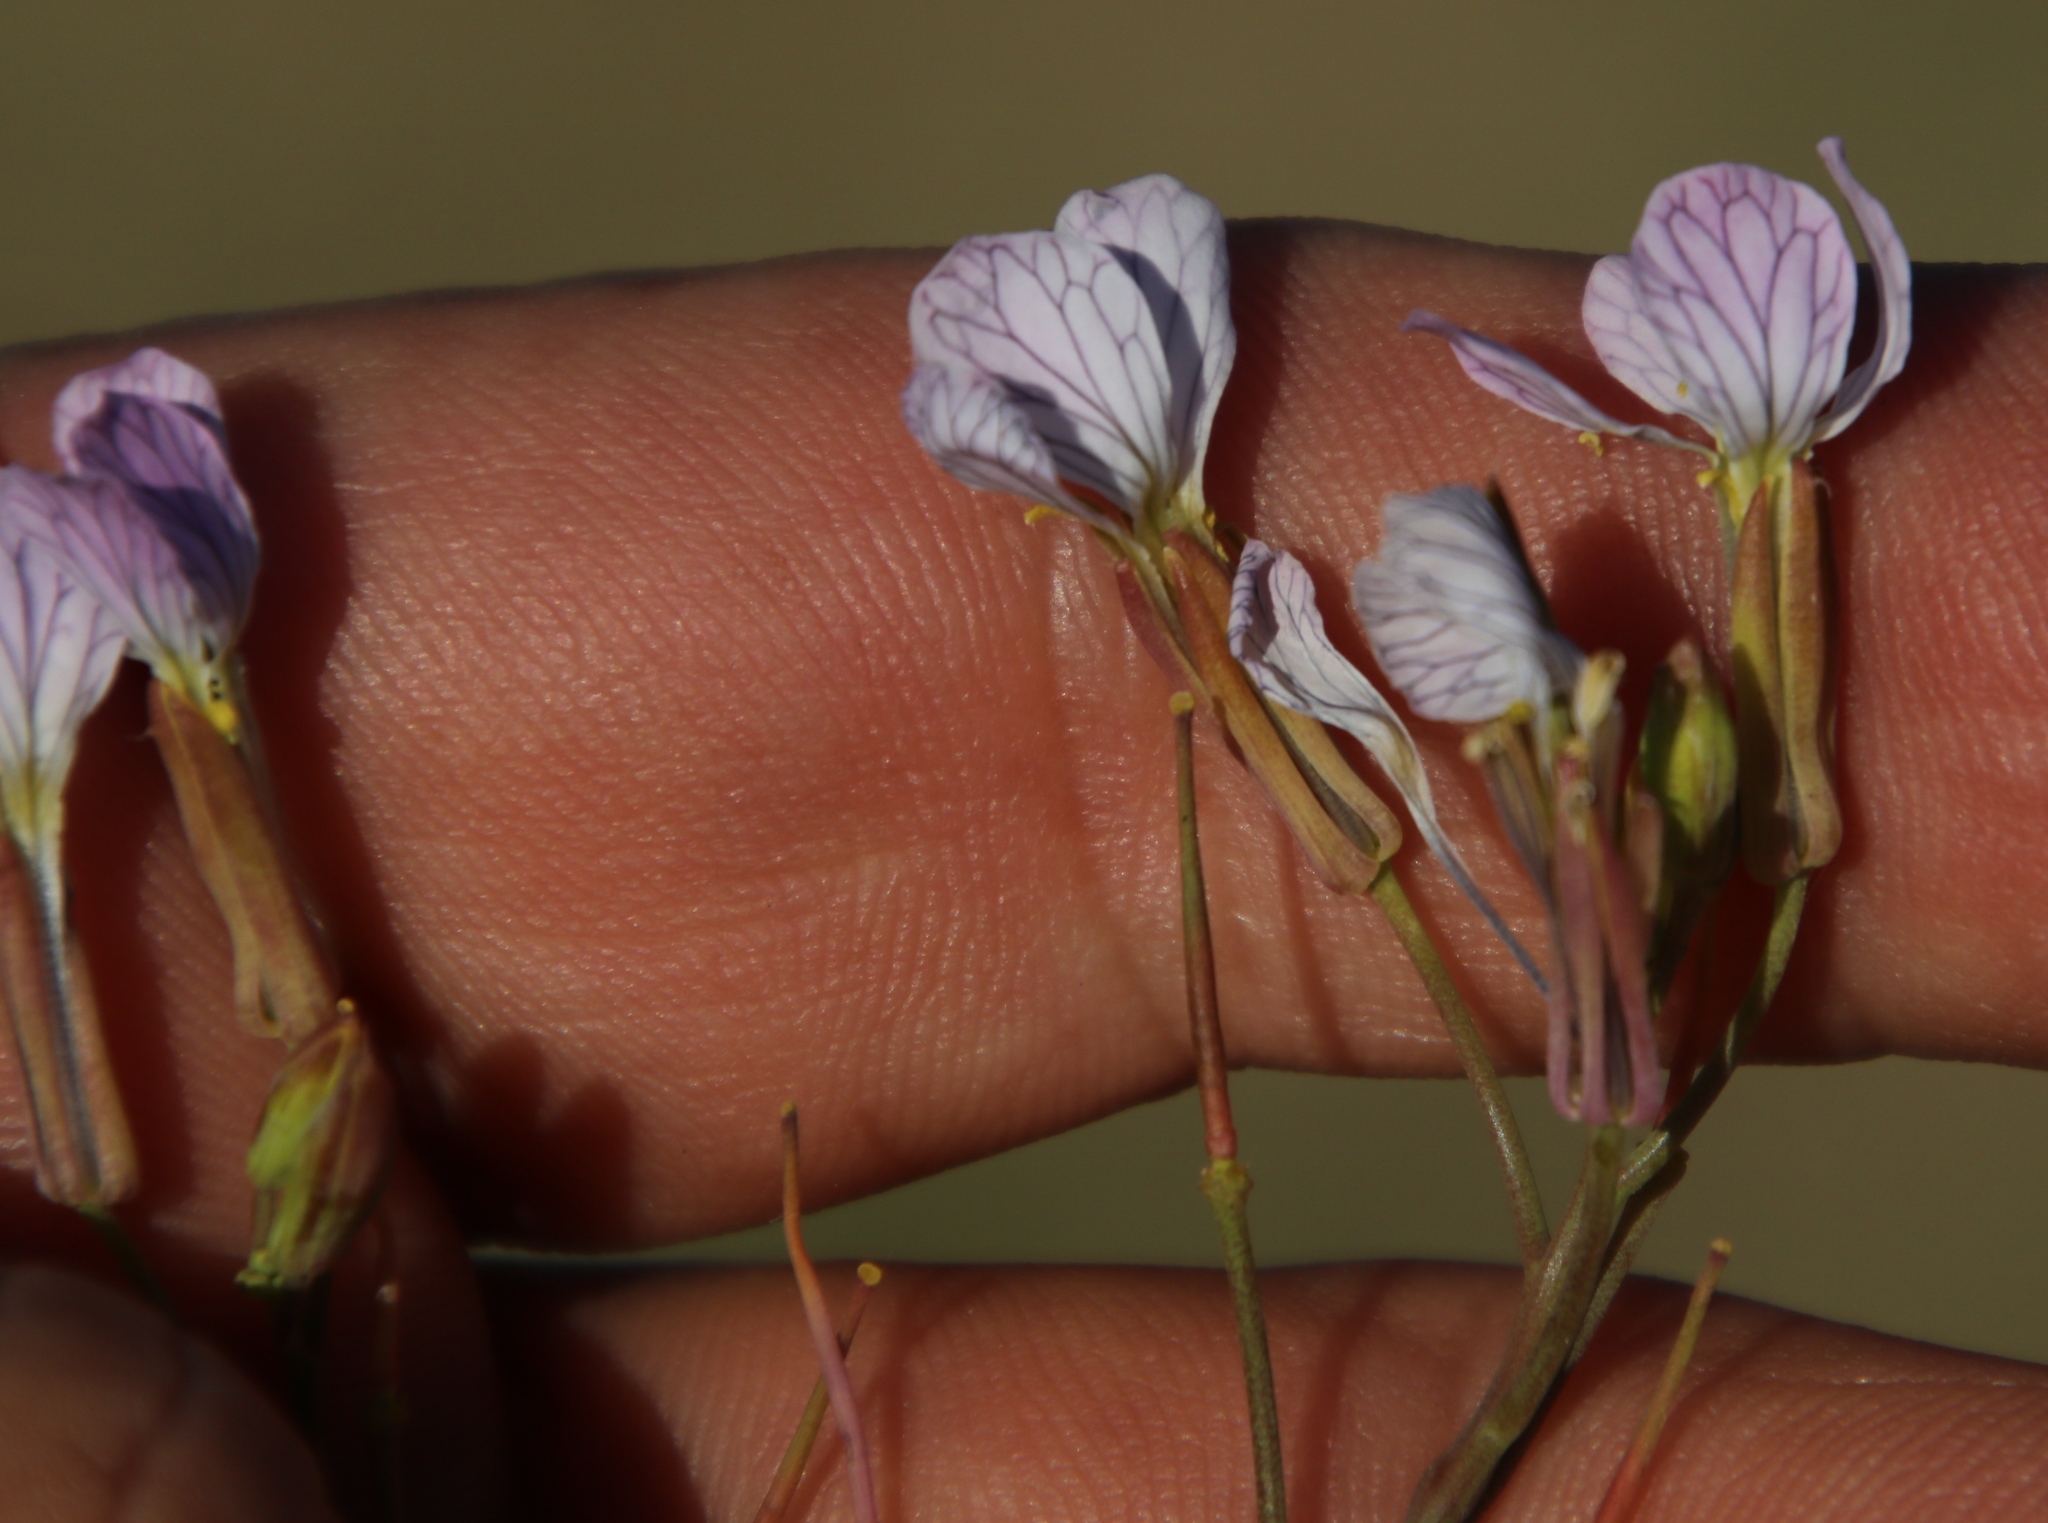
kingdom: Plantae
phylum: Tracheophyta
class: Magnoliopsida
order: Brassicales
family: Brassicaceae
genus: Raphanus
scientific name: Raphanus sativus
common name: Cultivated radish
